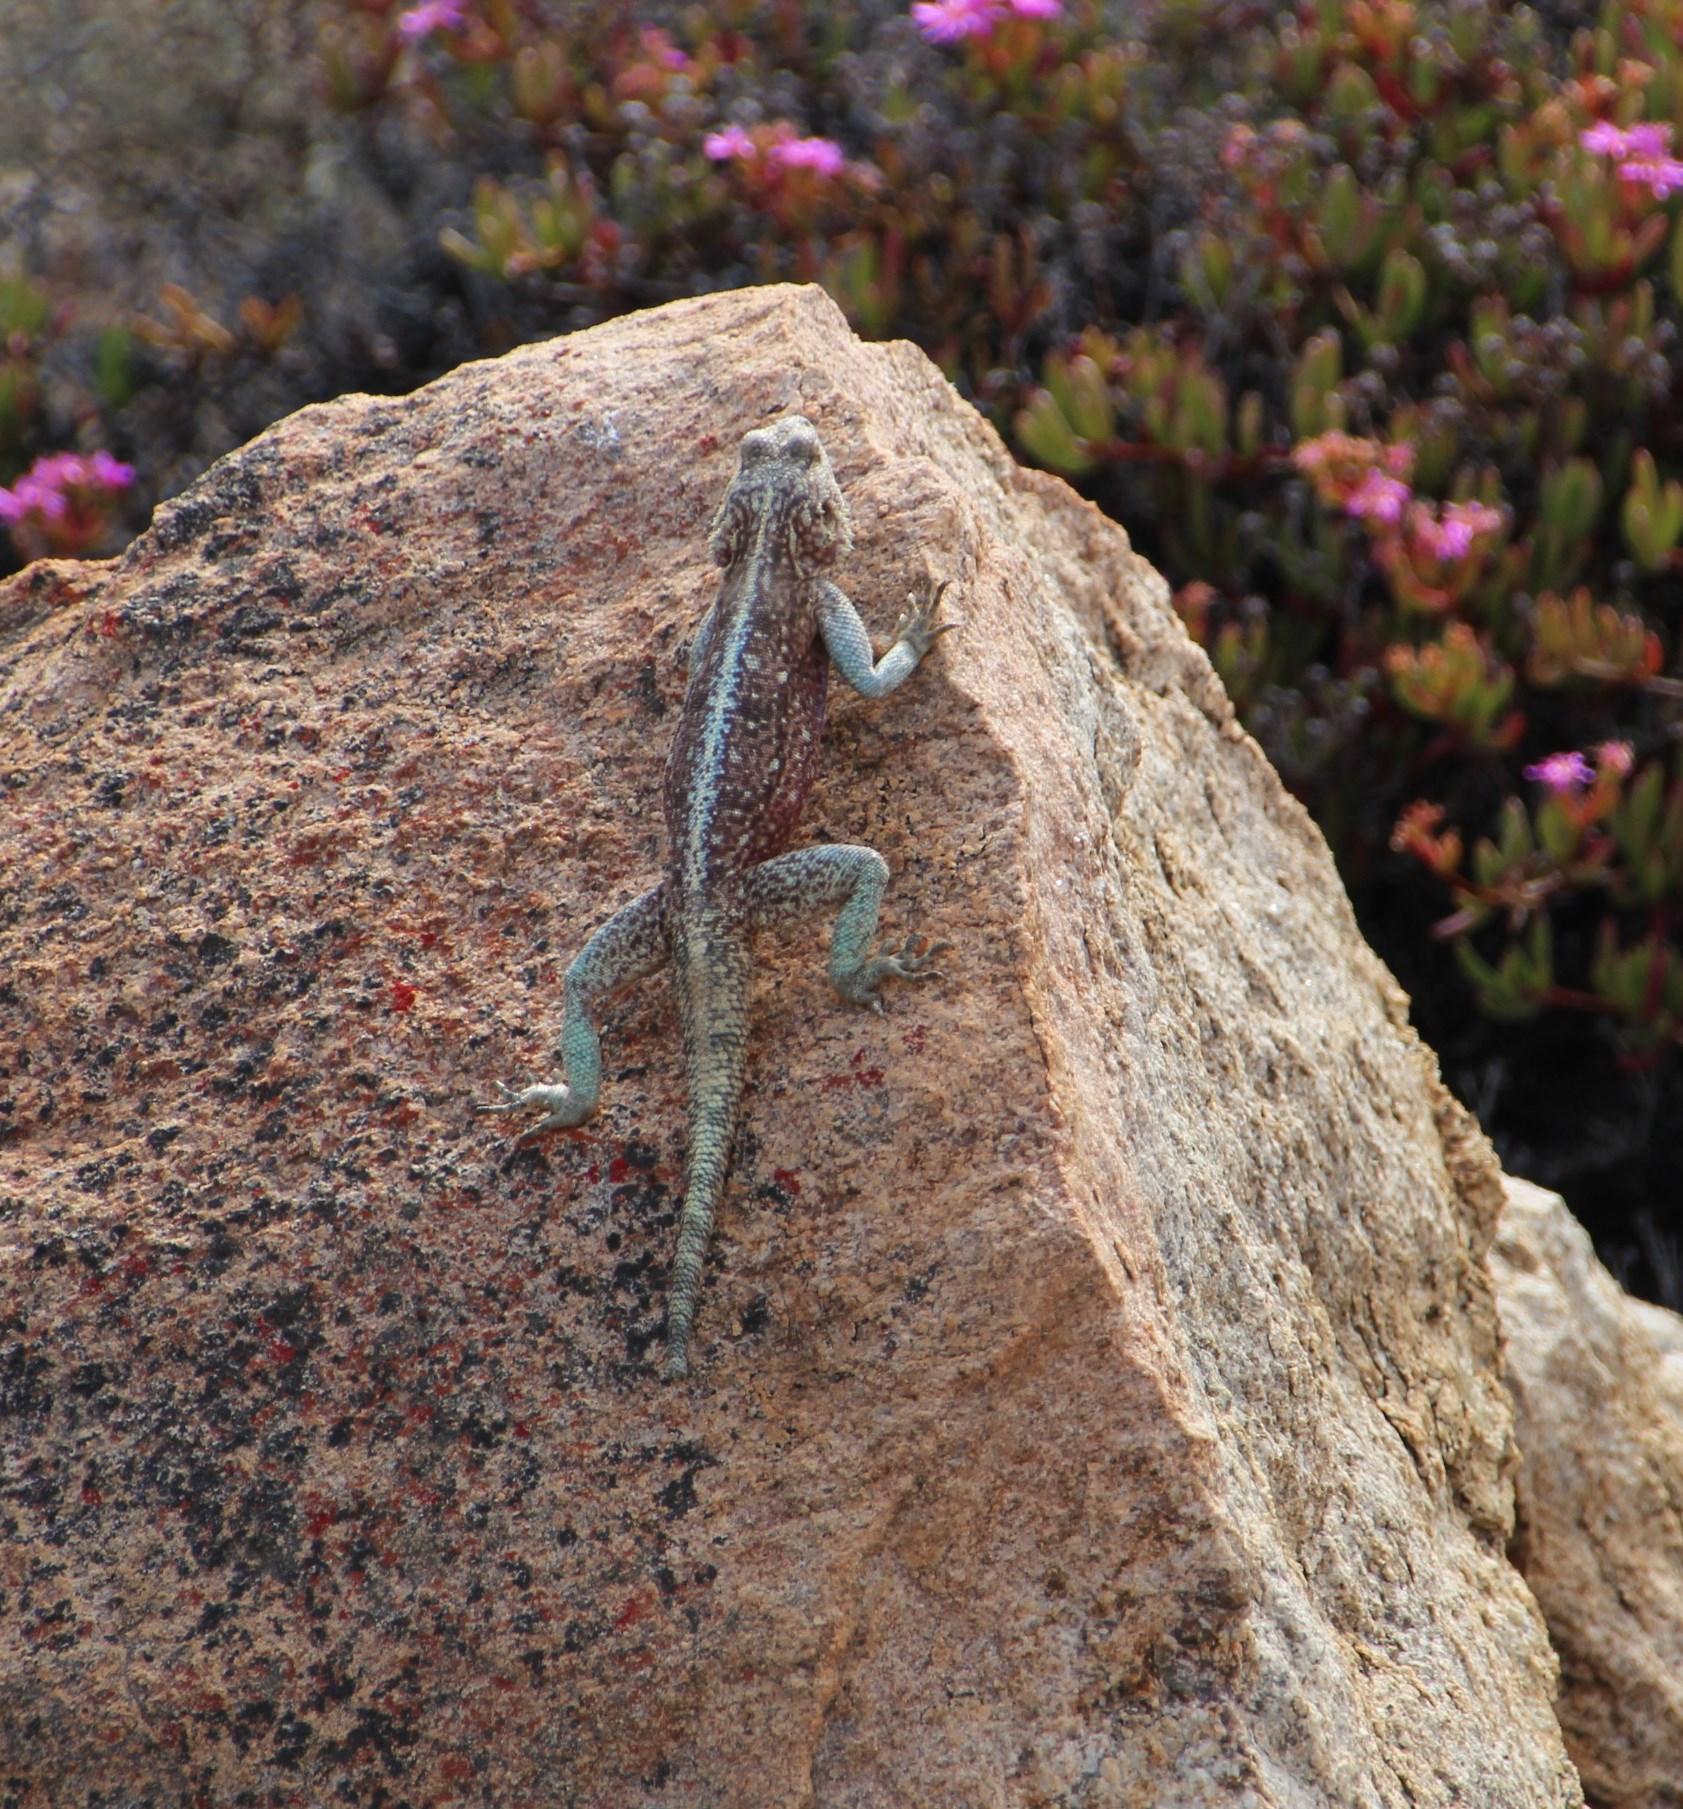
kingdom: Animalia
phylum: Chordata
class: Squamata
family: Agamidae
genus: Agama
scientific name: Agama atra
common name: Southern african rock agama
